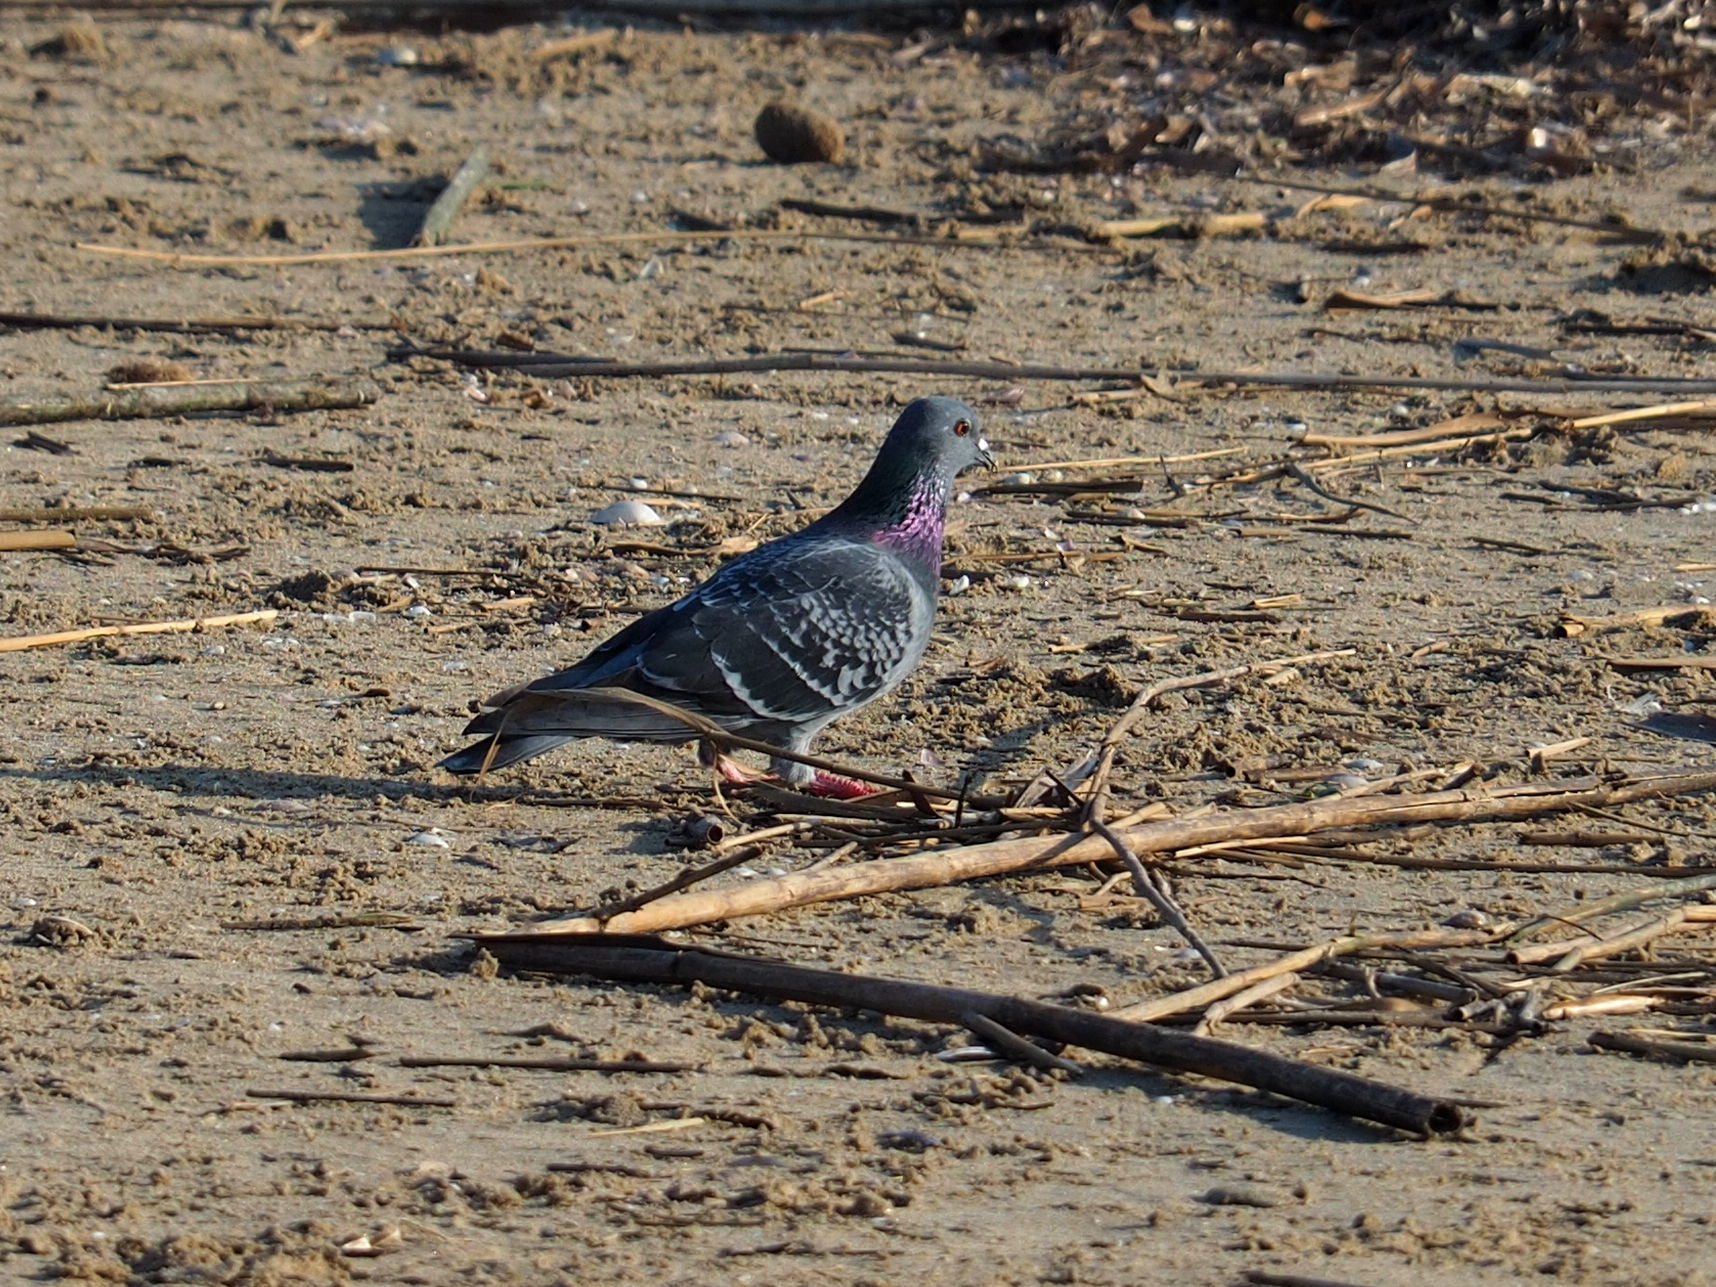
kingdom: Animalia
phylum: Chordata
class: Aves
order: Columbiformes
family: Columbidae
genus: Columba
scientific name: Columba livia
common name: Rock pigeon
